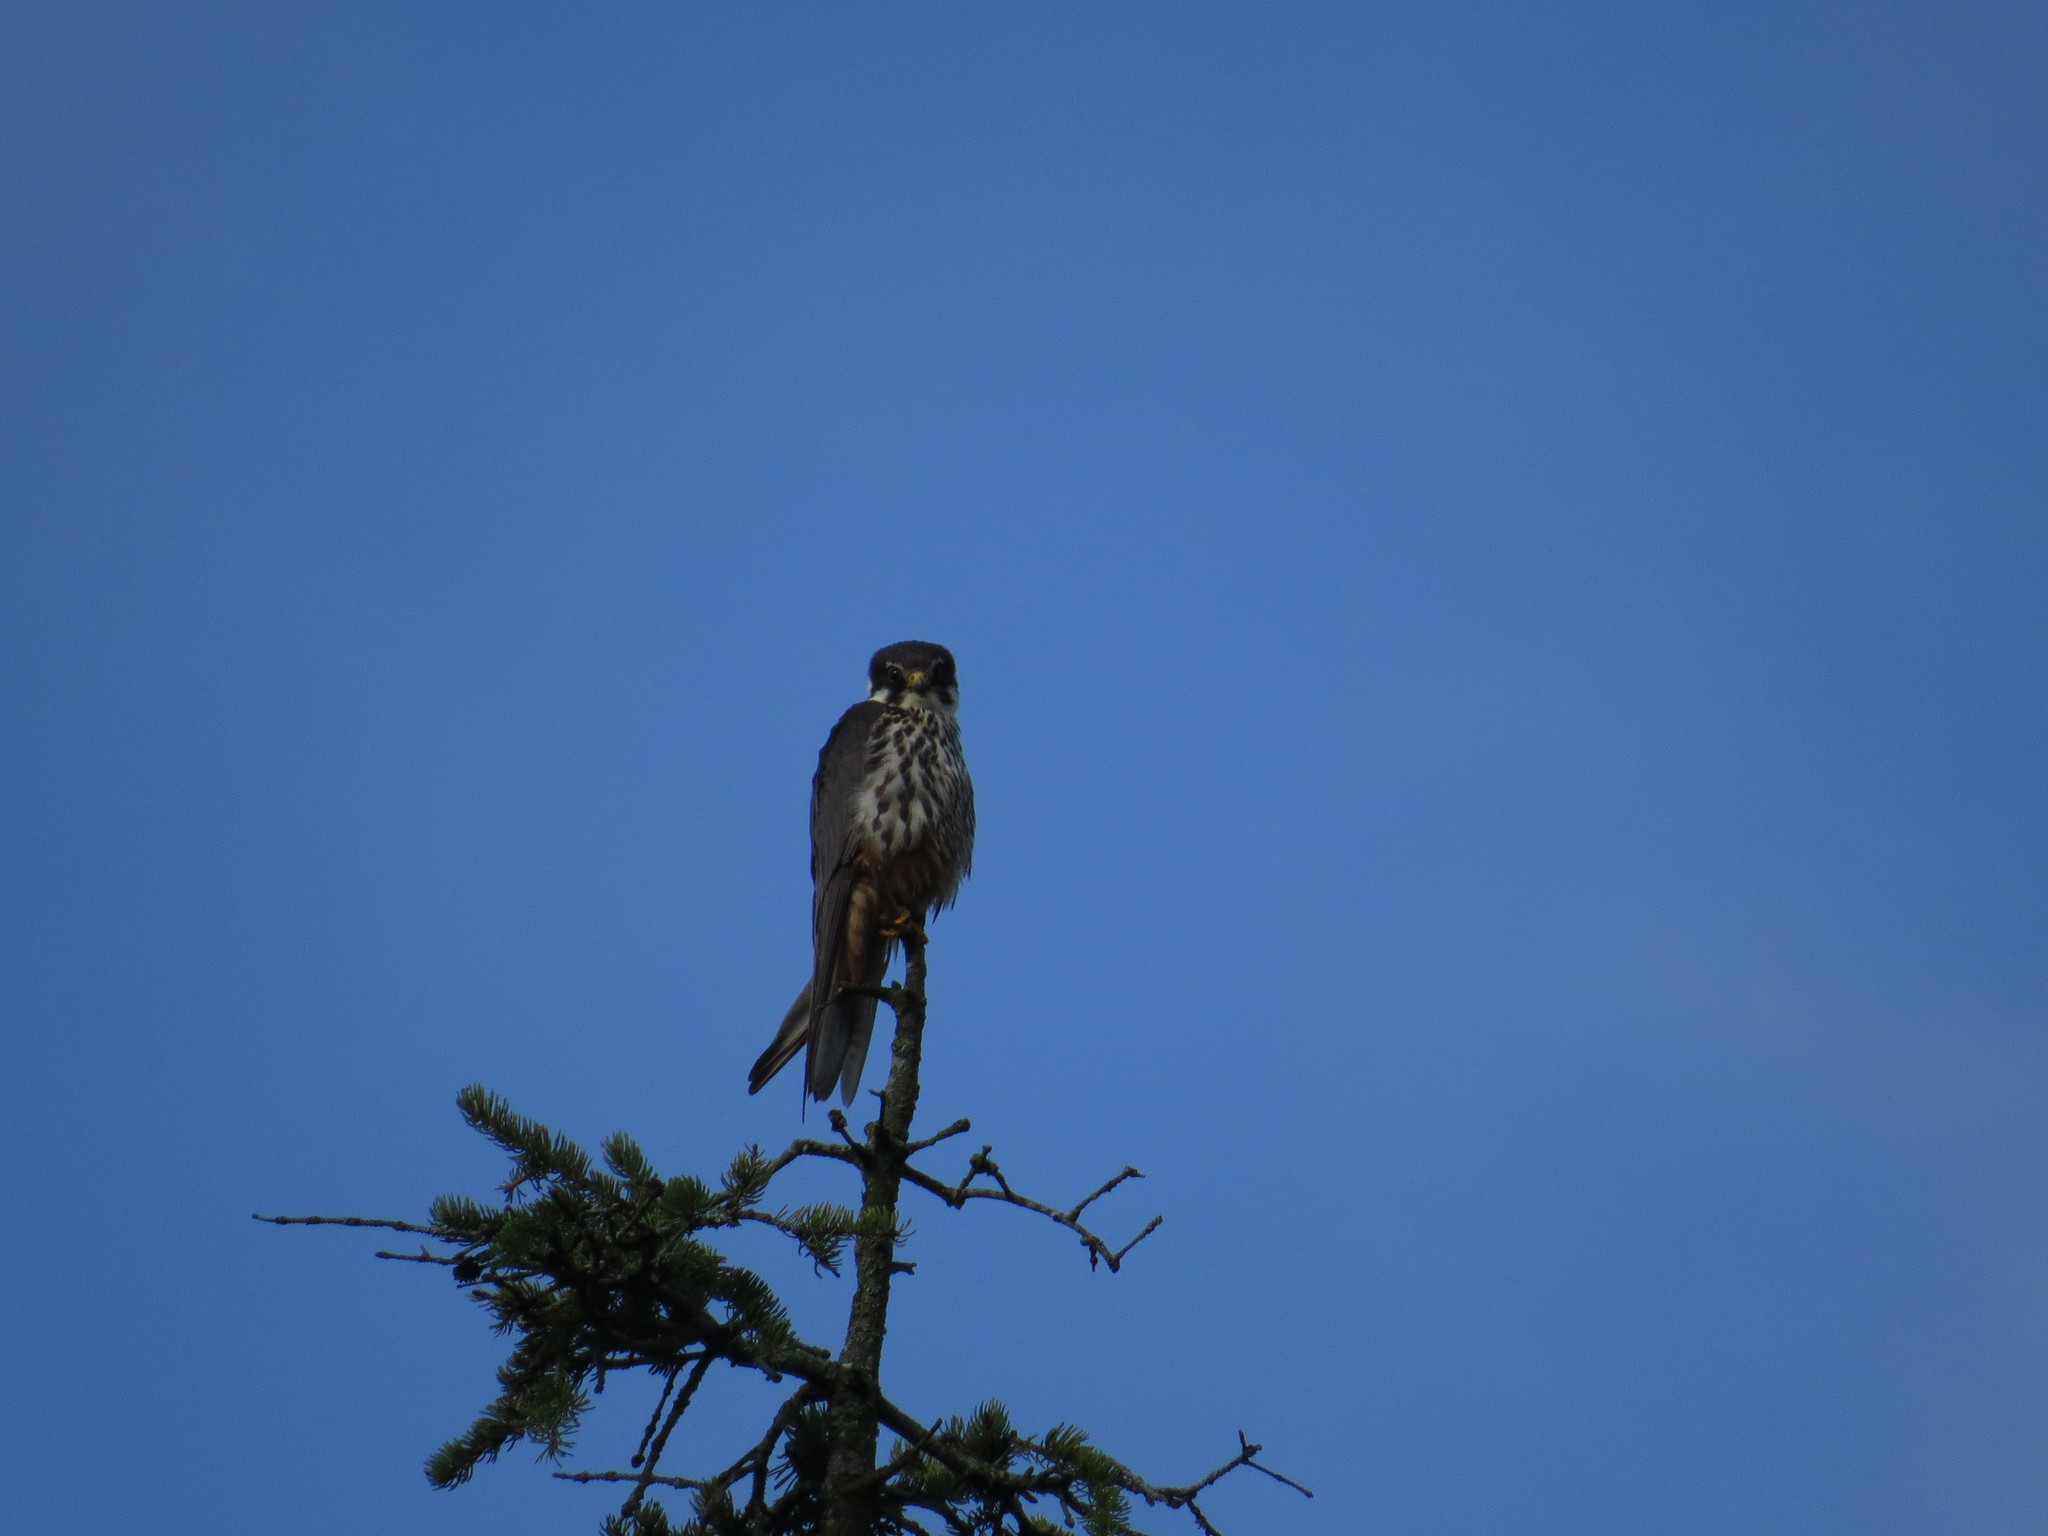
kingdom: Animalia
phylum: Chordata
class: Aves
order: Falconiformes
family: Falconidae
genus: Falco
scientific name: Falco subbuteo
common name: Eurasian hobby
